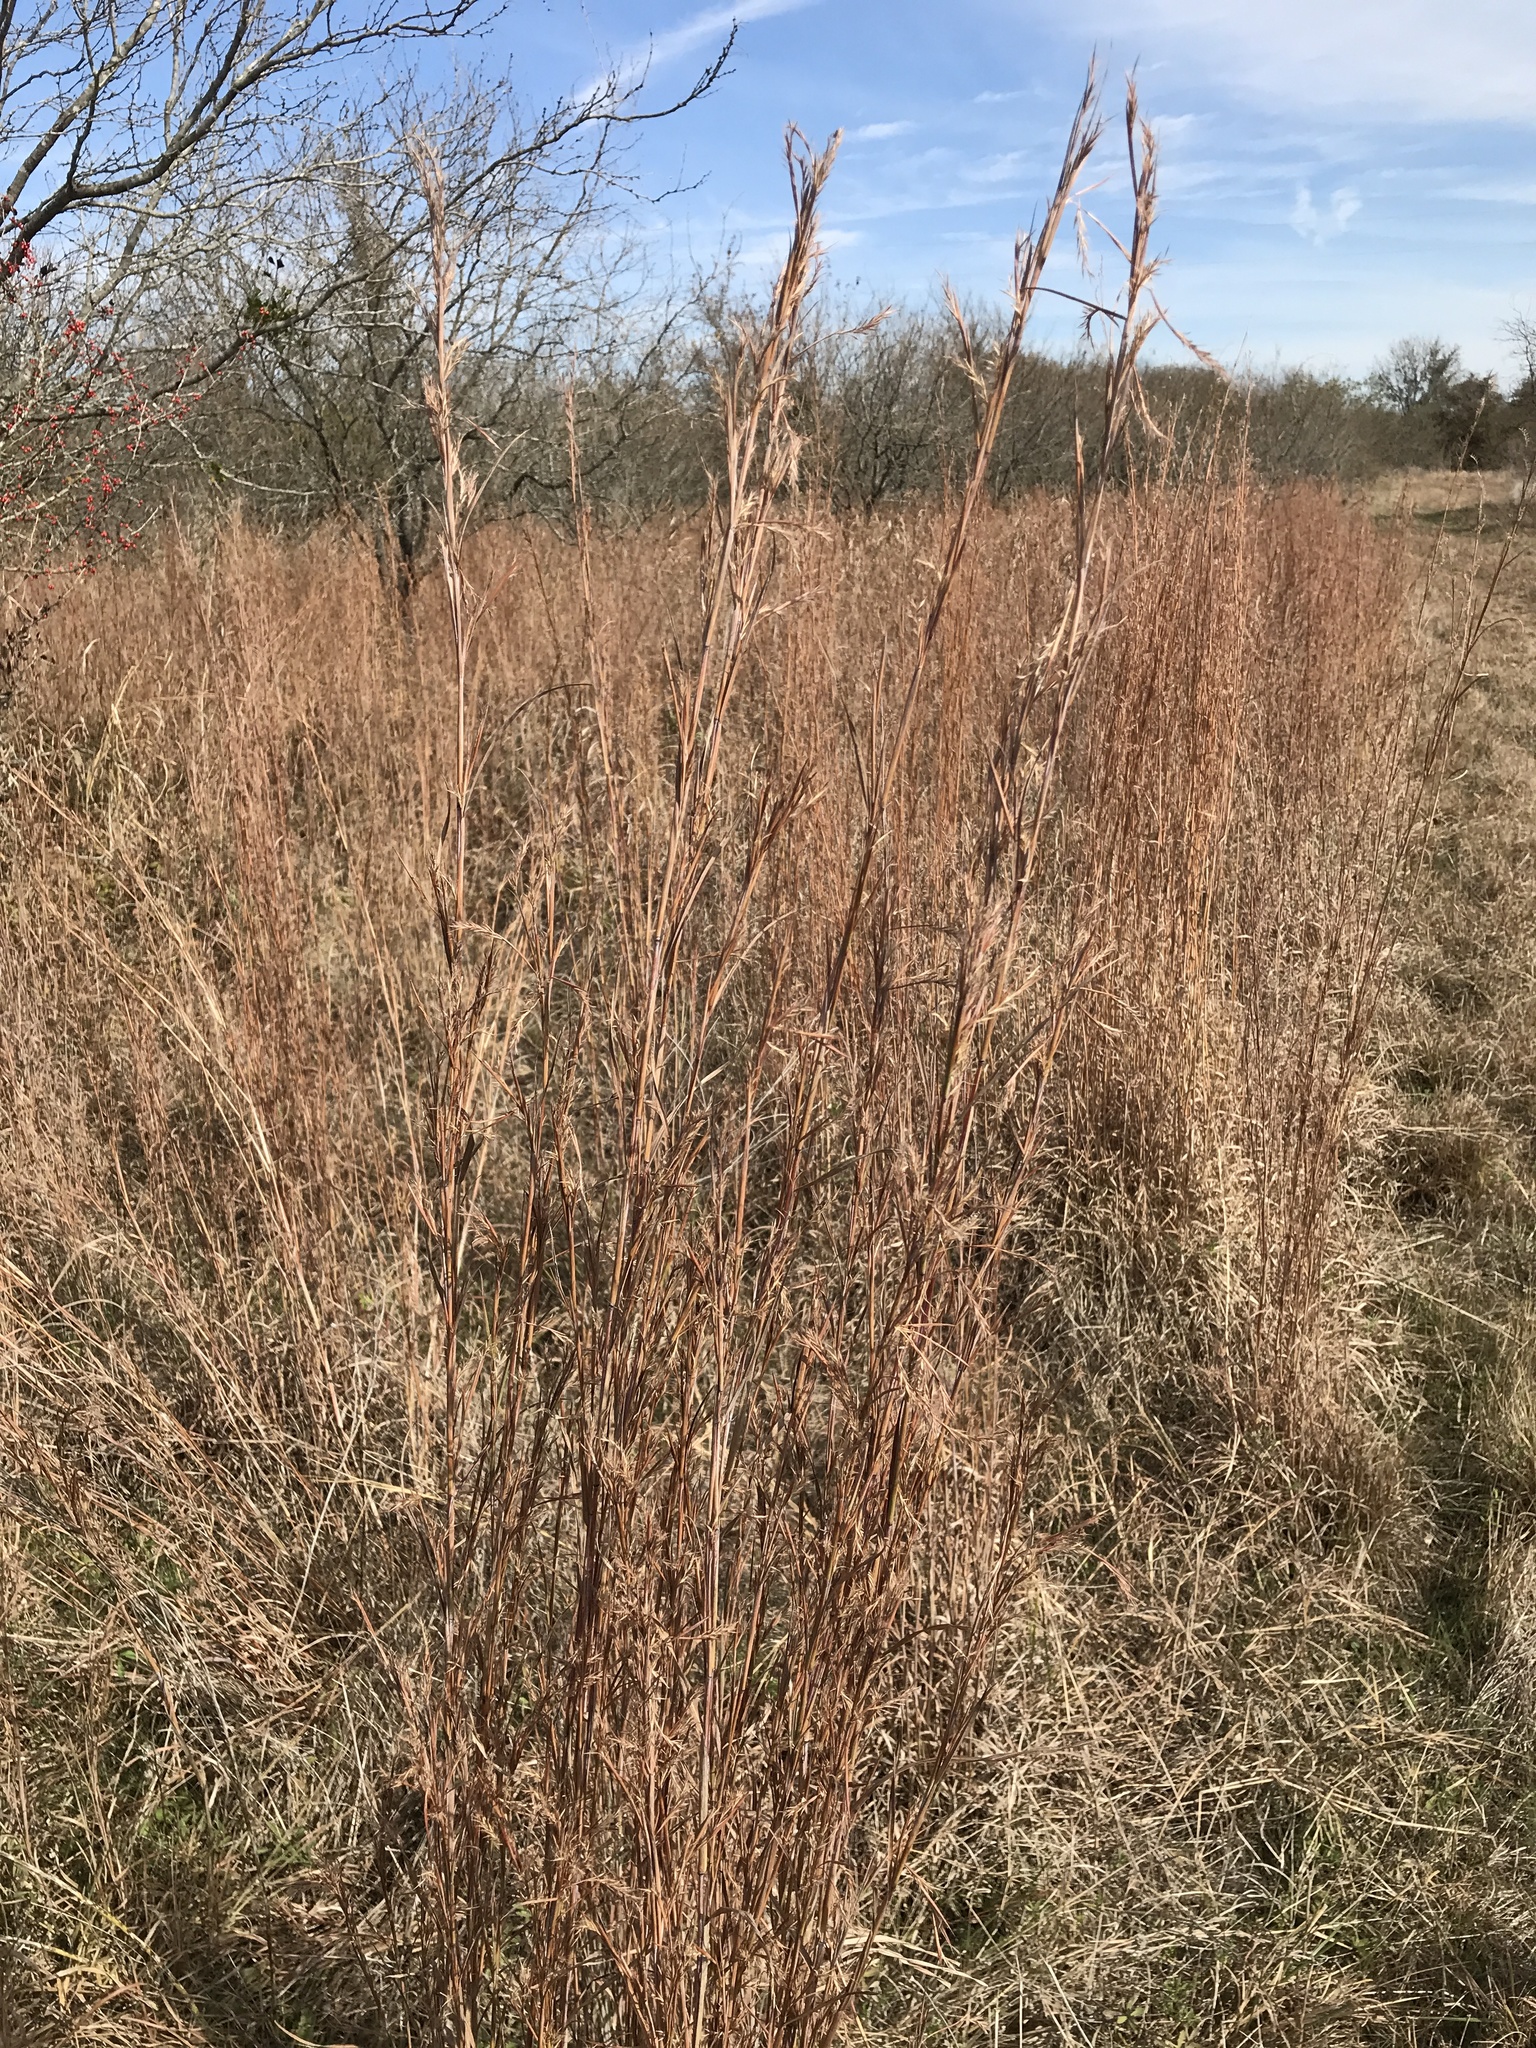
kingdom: Plantae
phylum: Tracheophyta
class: Liliopsida
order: Poales
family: Poaceae
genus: Schizachyrium
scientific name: Schizachyrium scoparium
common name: Little bluestem
